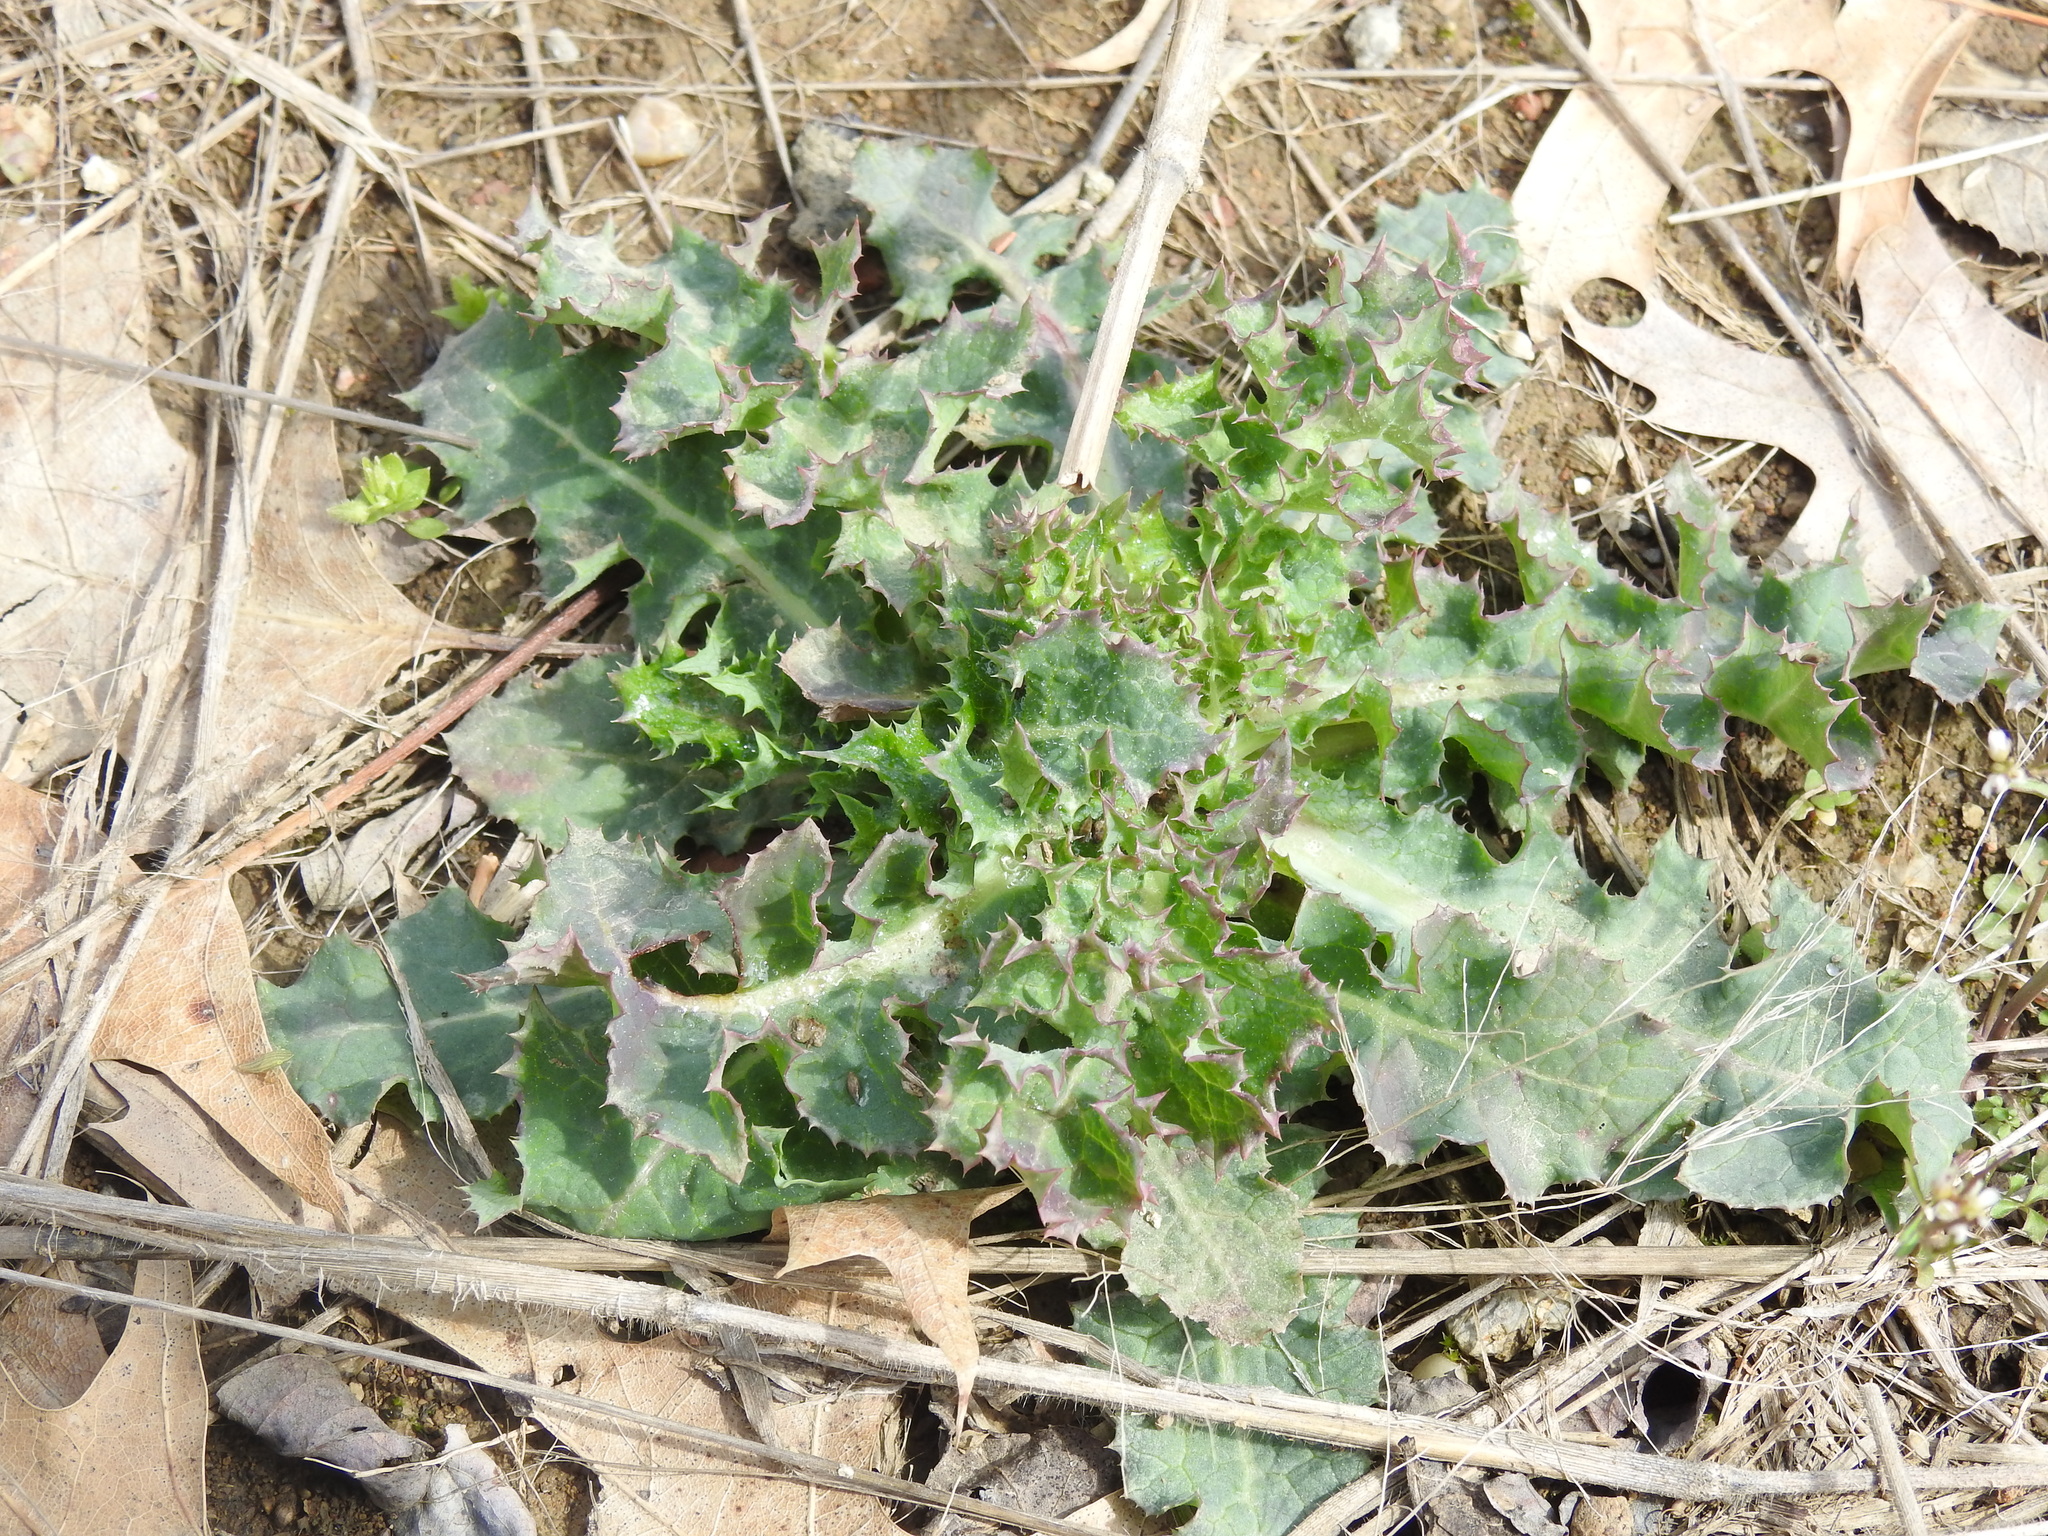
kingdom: Plantae
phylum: Tracheophyta
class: Magnoliopsida
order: Asterales
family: Asteraceae
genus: Sonchus
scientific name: Sonchus asper
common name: Prickly sow-thistle
